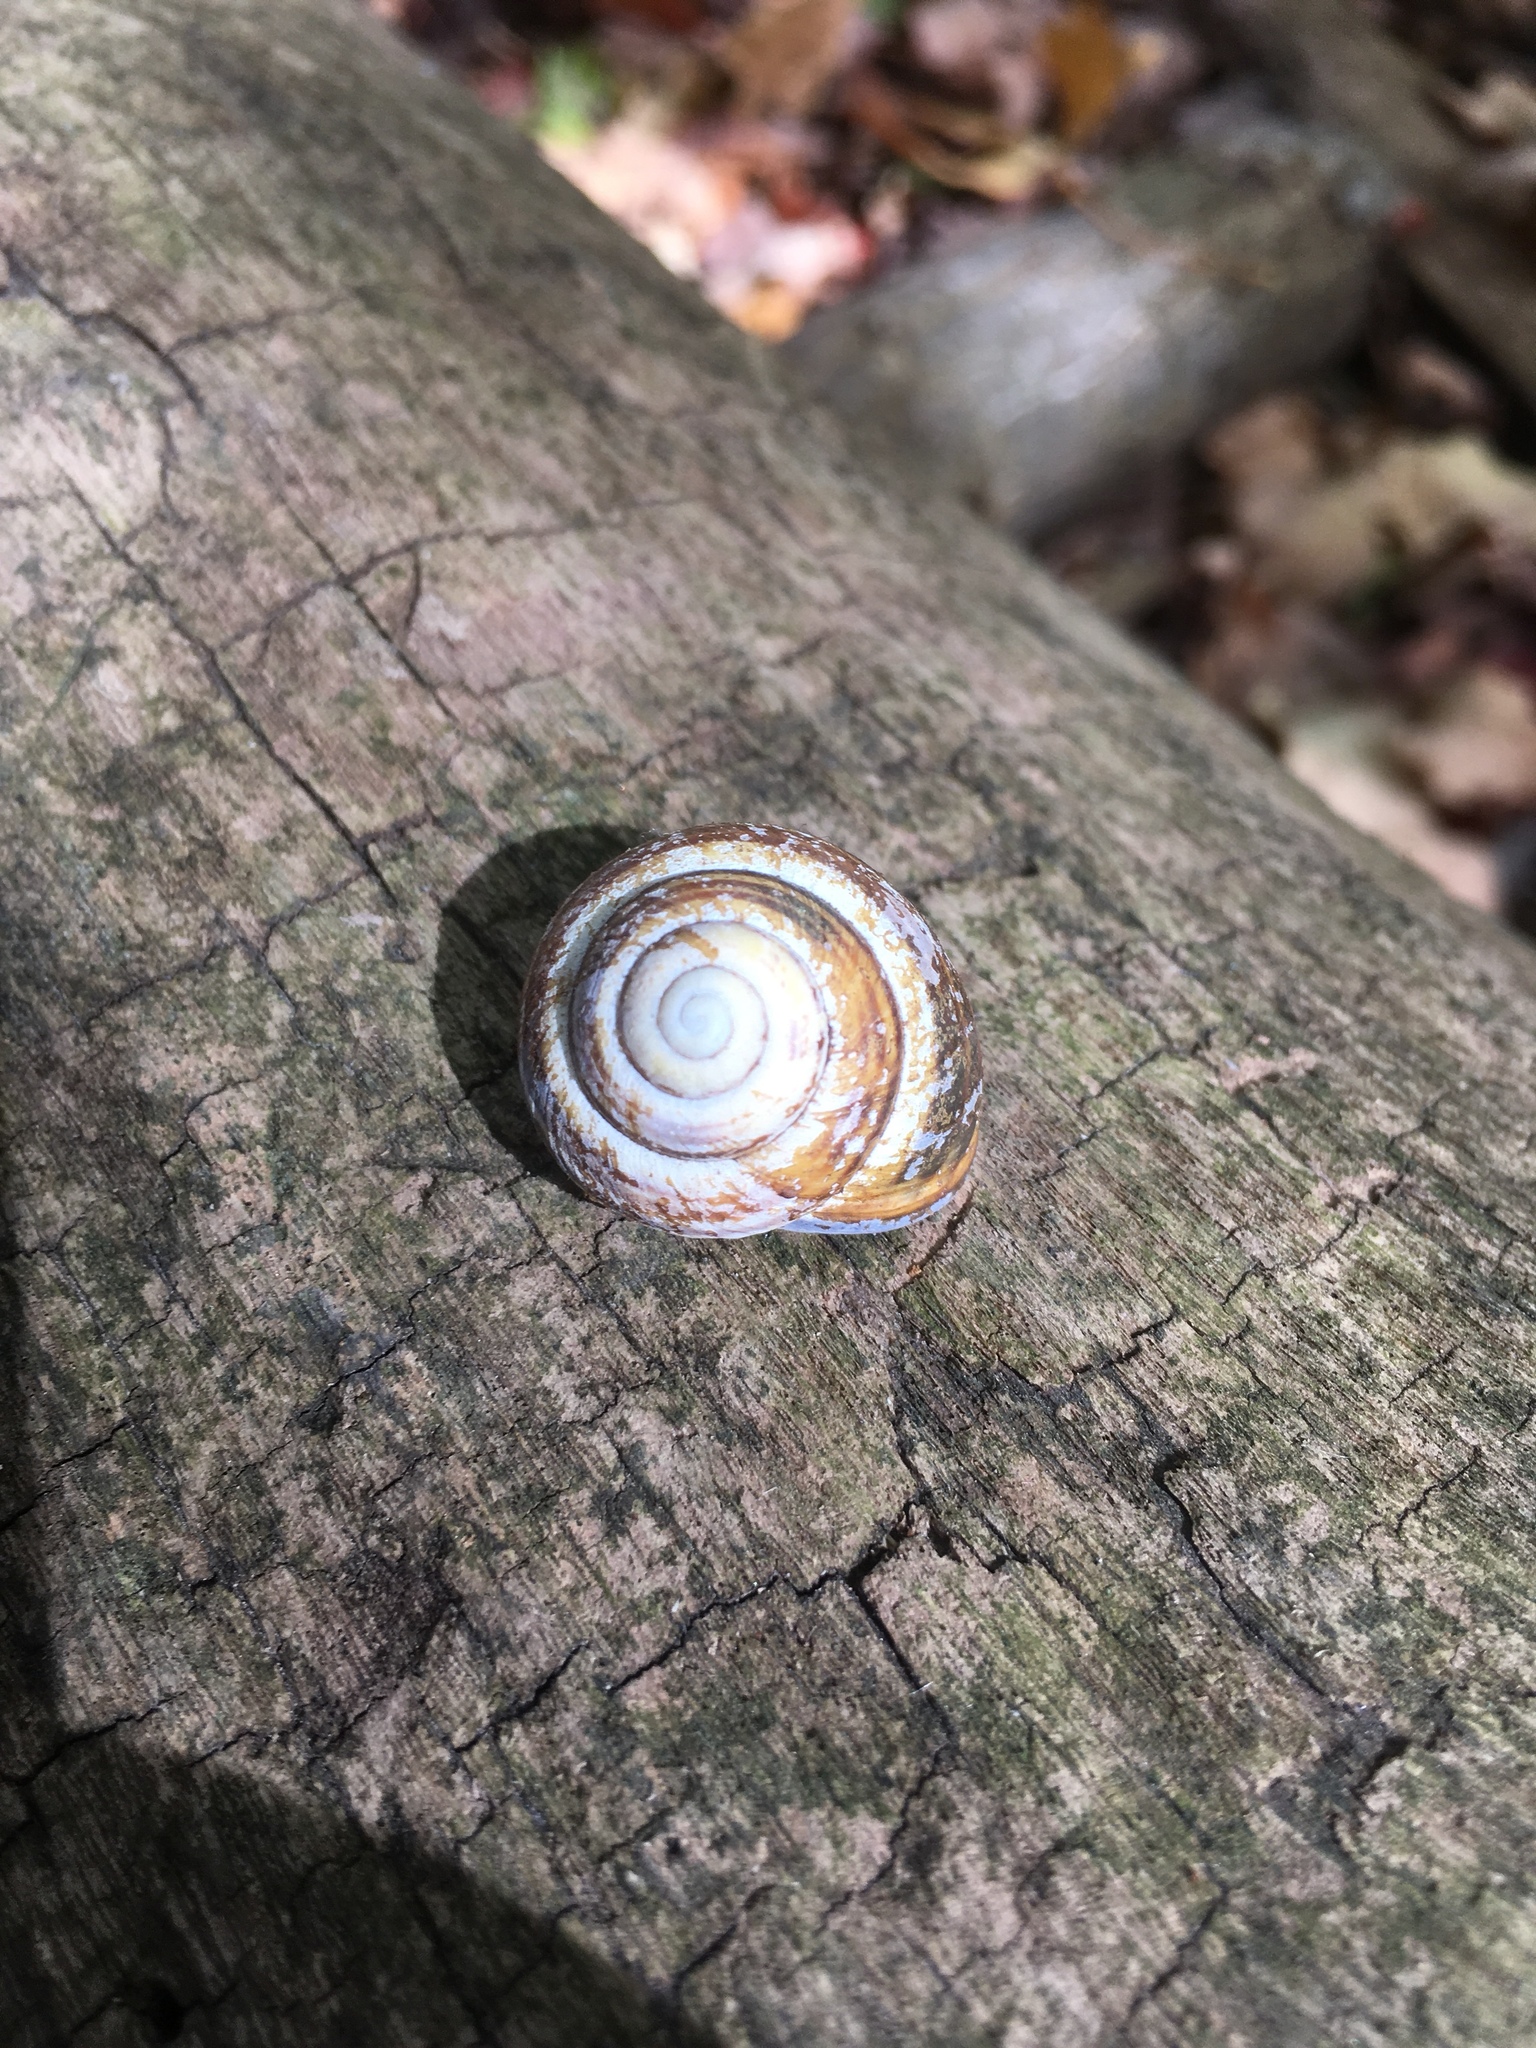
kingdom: Animalia
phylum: Mollusca
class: Gastropoda
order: Stylommatophora
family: Helicidae
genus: Cepaea
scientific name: Cepaea nemoralis
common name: Grovesnail
